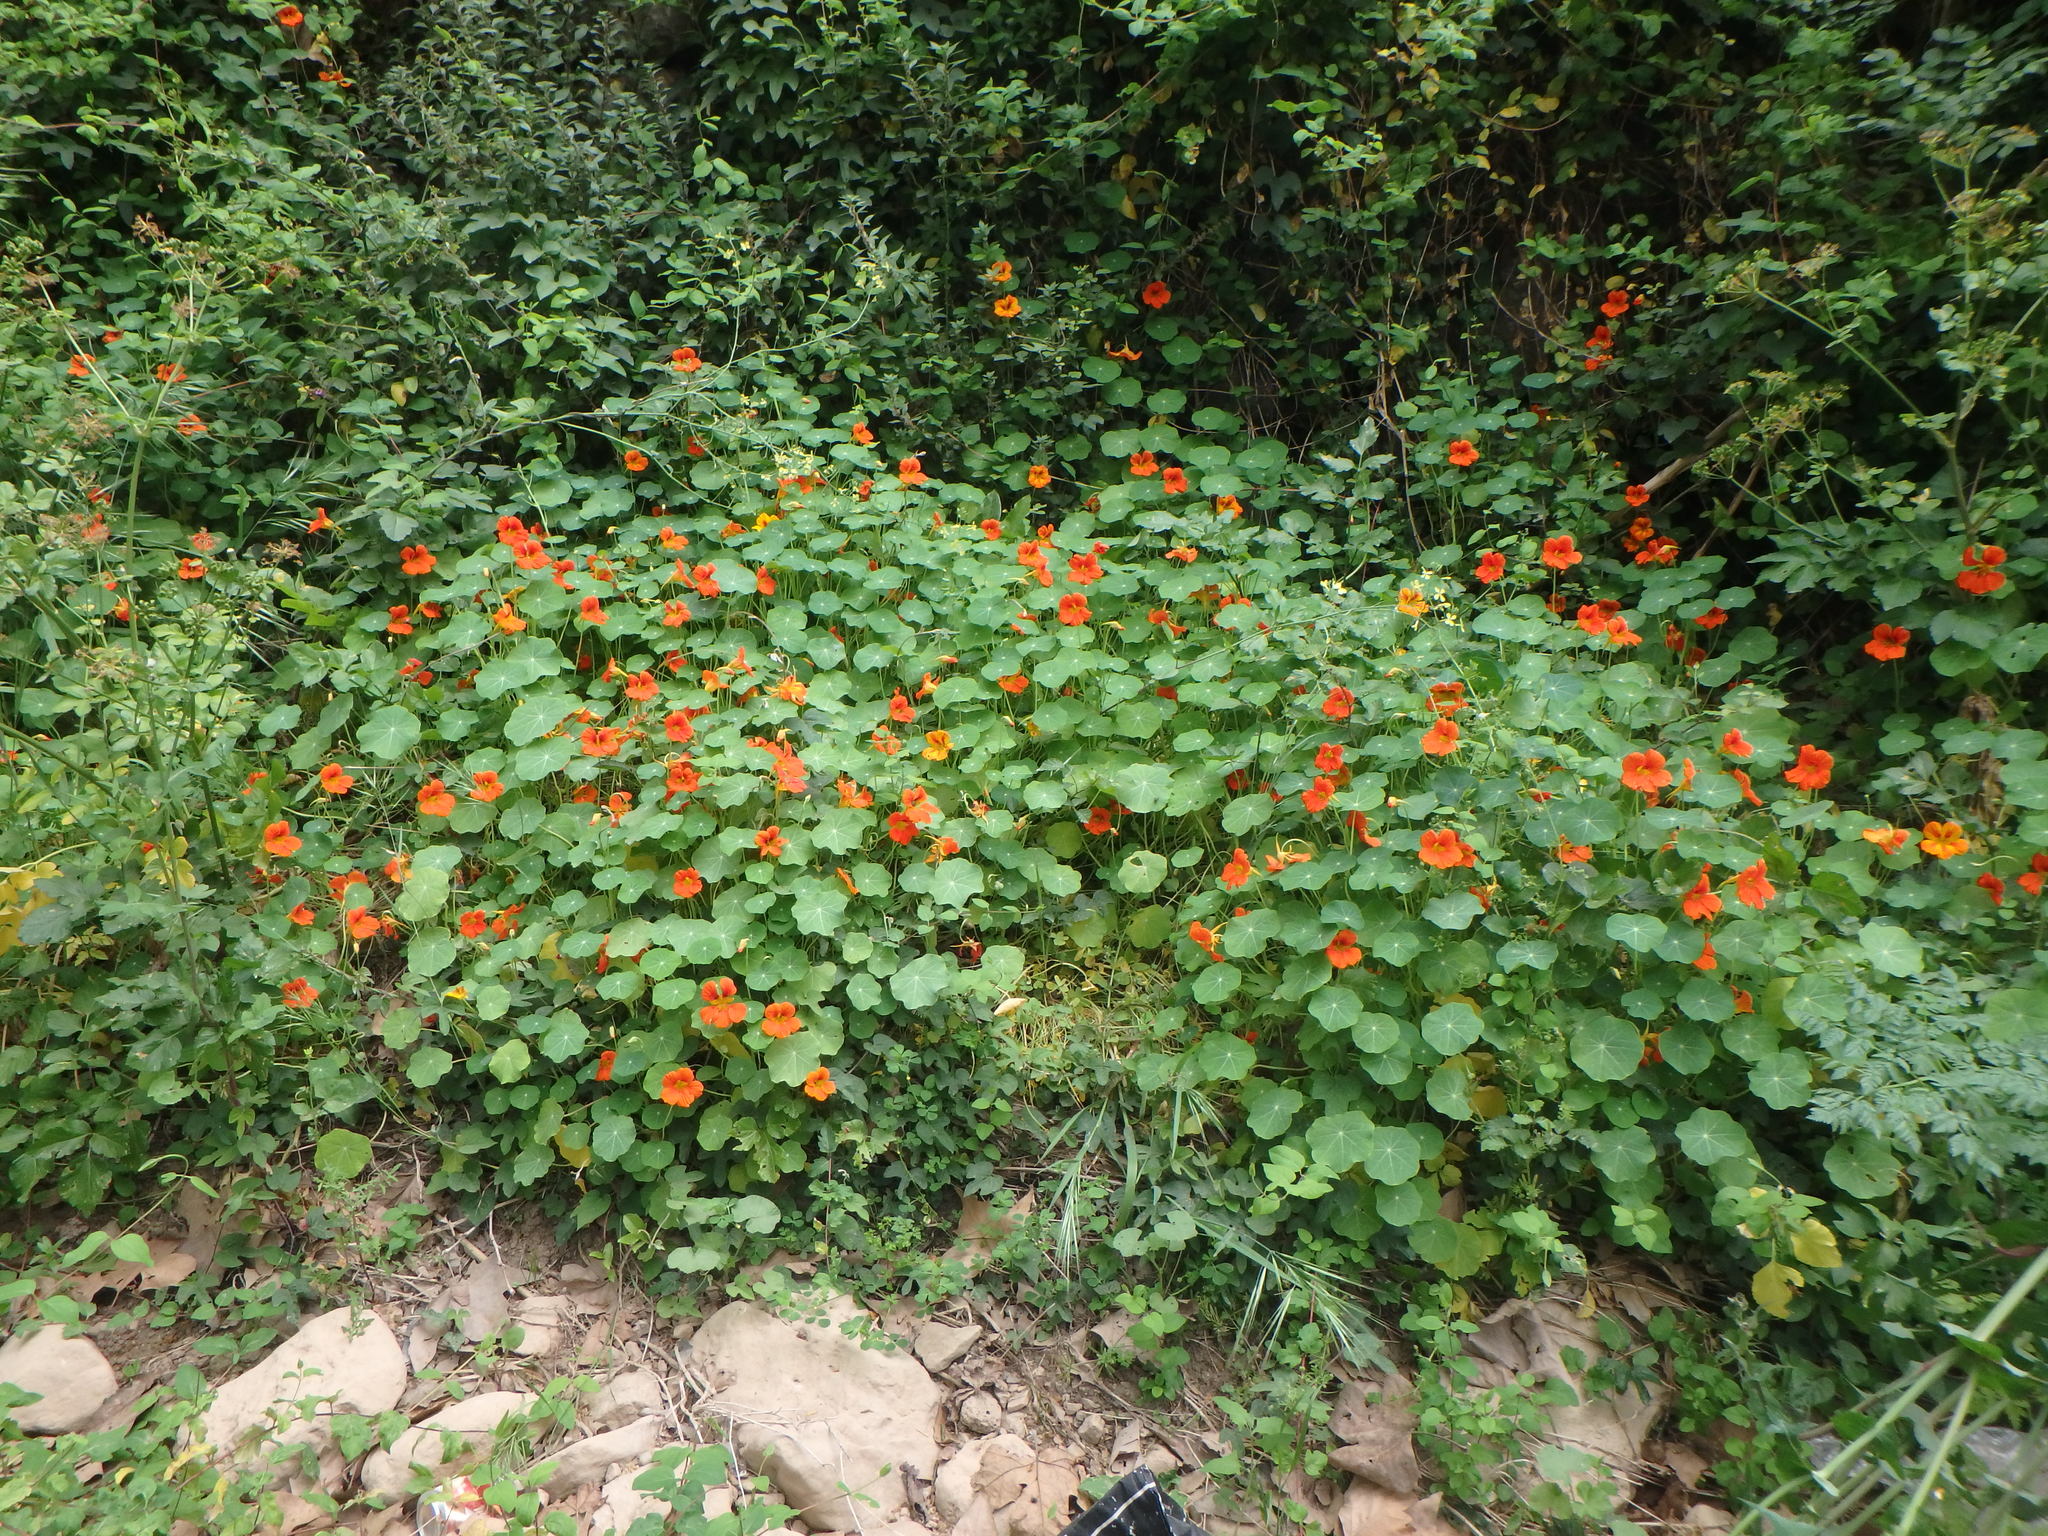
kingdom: Plantae
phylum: Tracheophyta
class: Magnoliopsida
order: Brassicales
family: Tropaeolaceae
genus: Tropaeolum
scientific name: Tropaeolum majus
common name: Nasturtium
